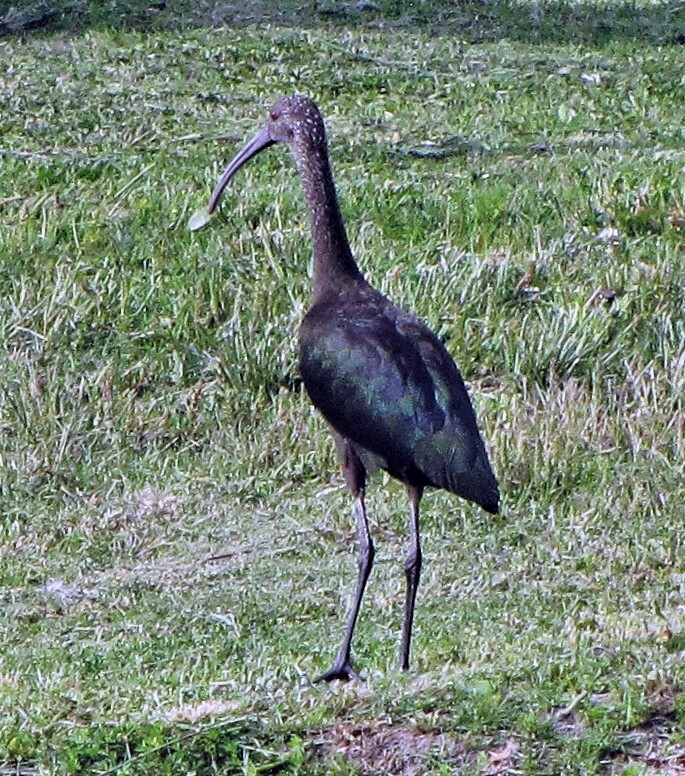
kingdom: Animalia
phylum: Chordata
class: Aves
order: Pelecaniformes
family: Threskiornithidae
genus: Plegadis
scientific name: Plegadis chihi
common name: White-faced ibis
